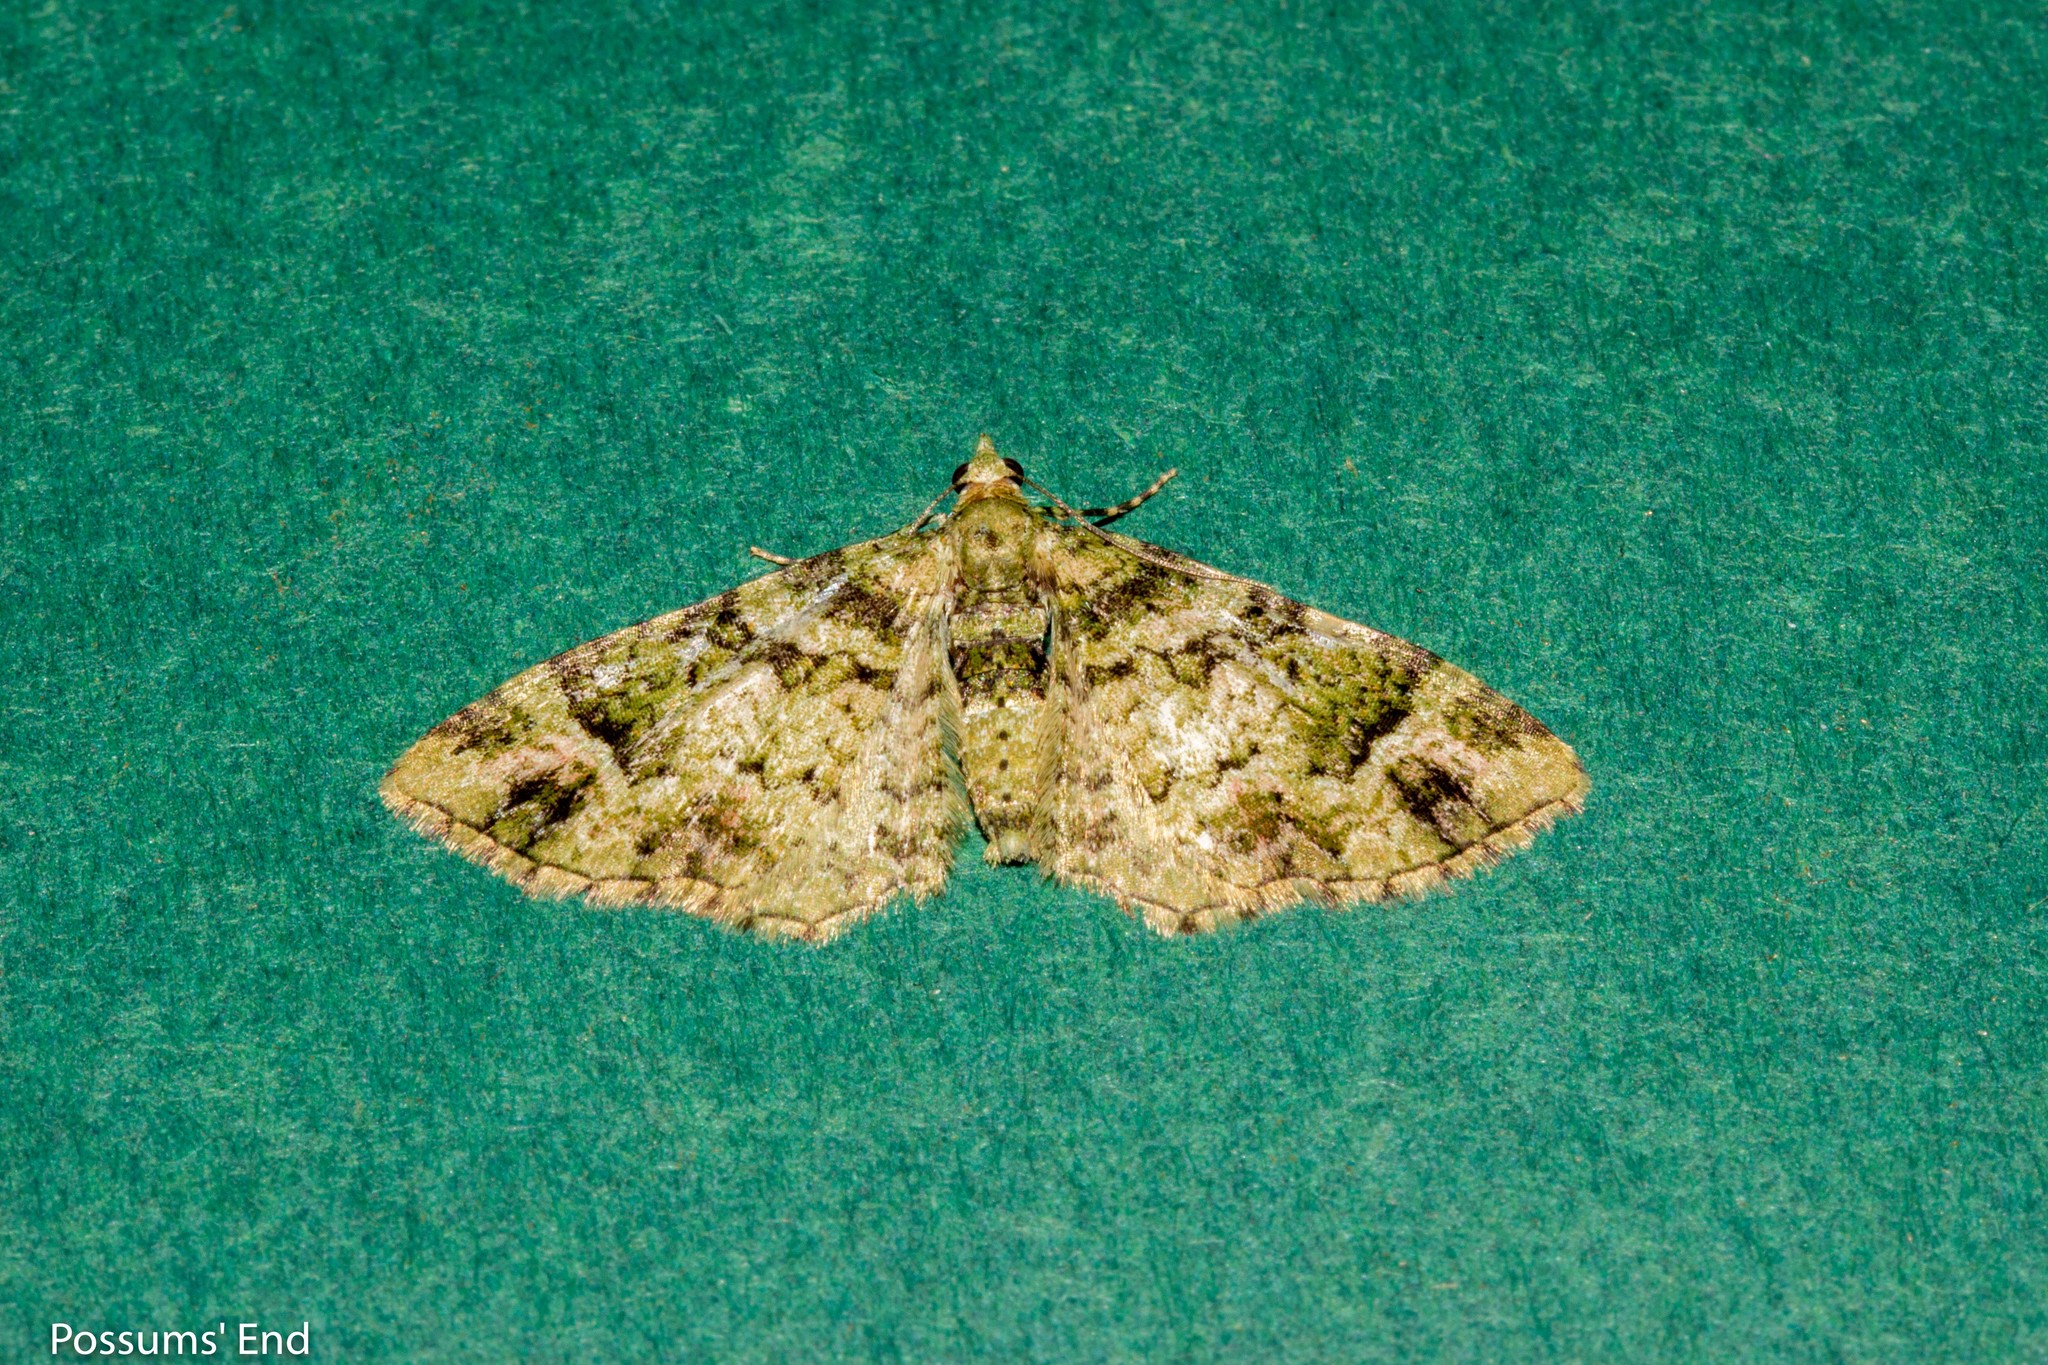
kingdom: Animalia
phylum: Arthropoda
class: Insecta
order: Lepidoptera
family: Geometridae
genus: Pasiphila
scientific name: Pasiphila muscosata
